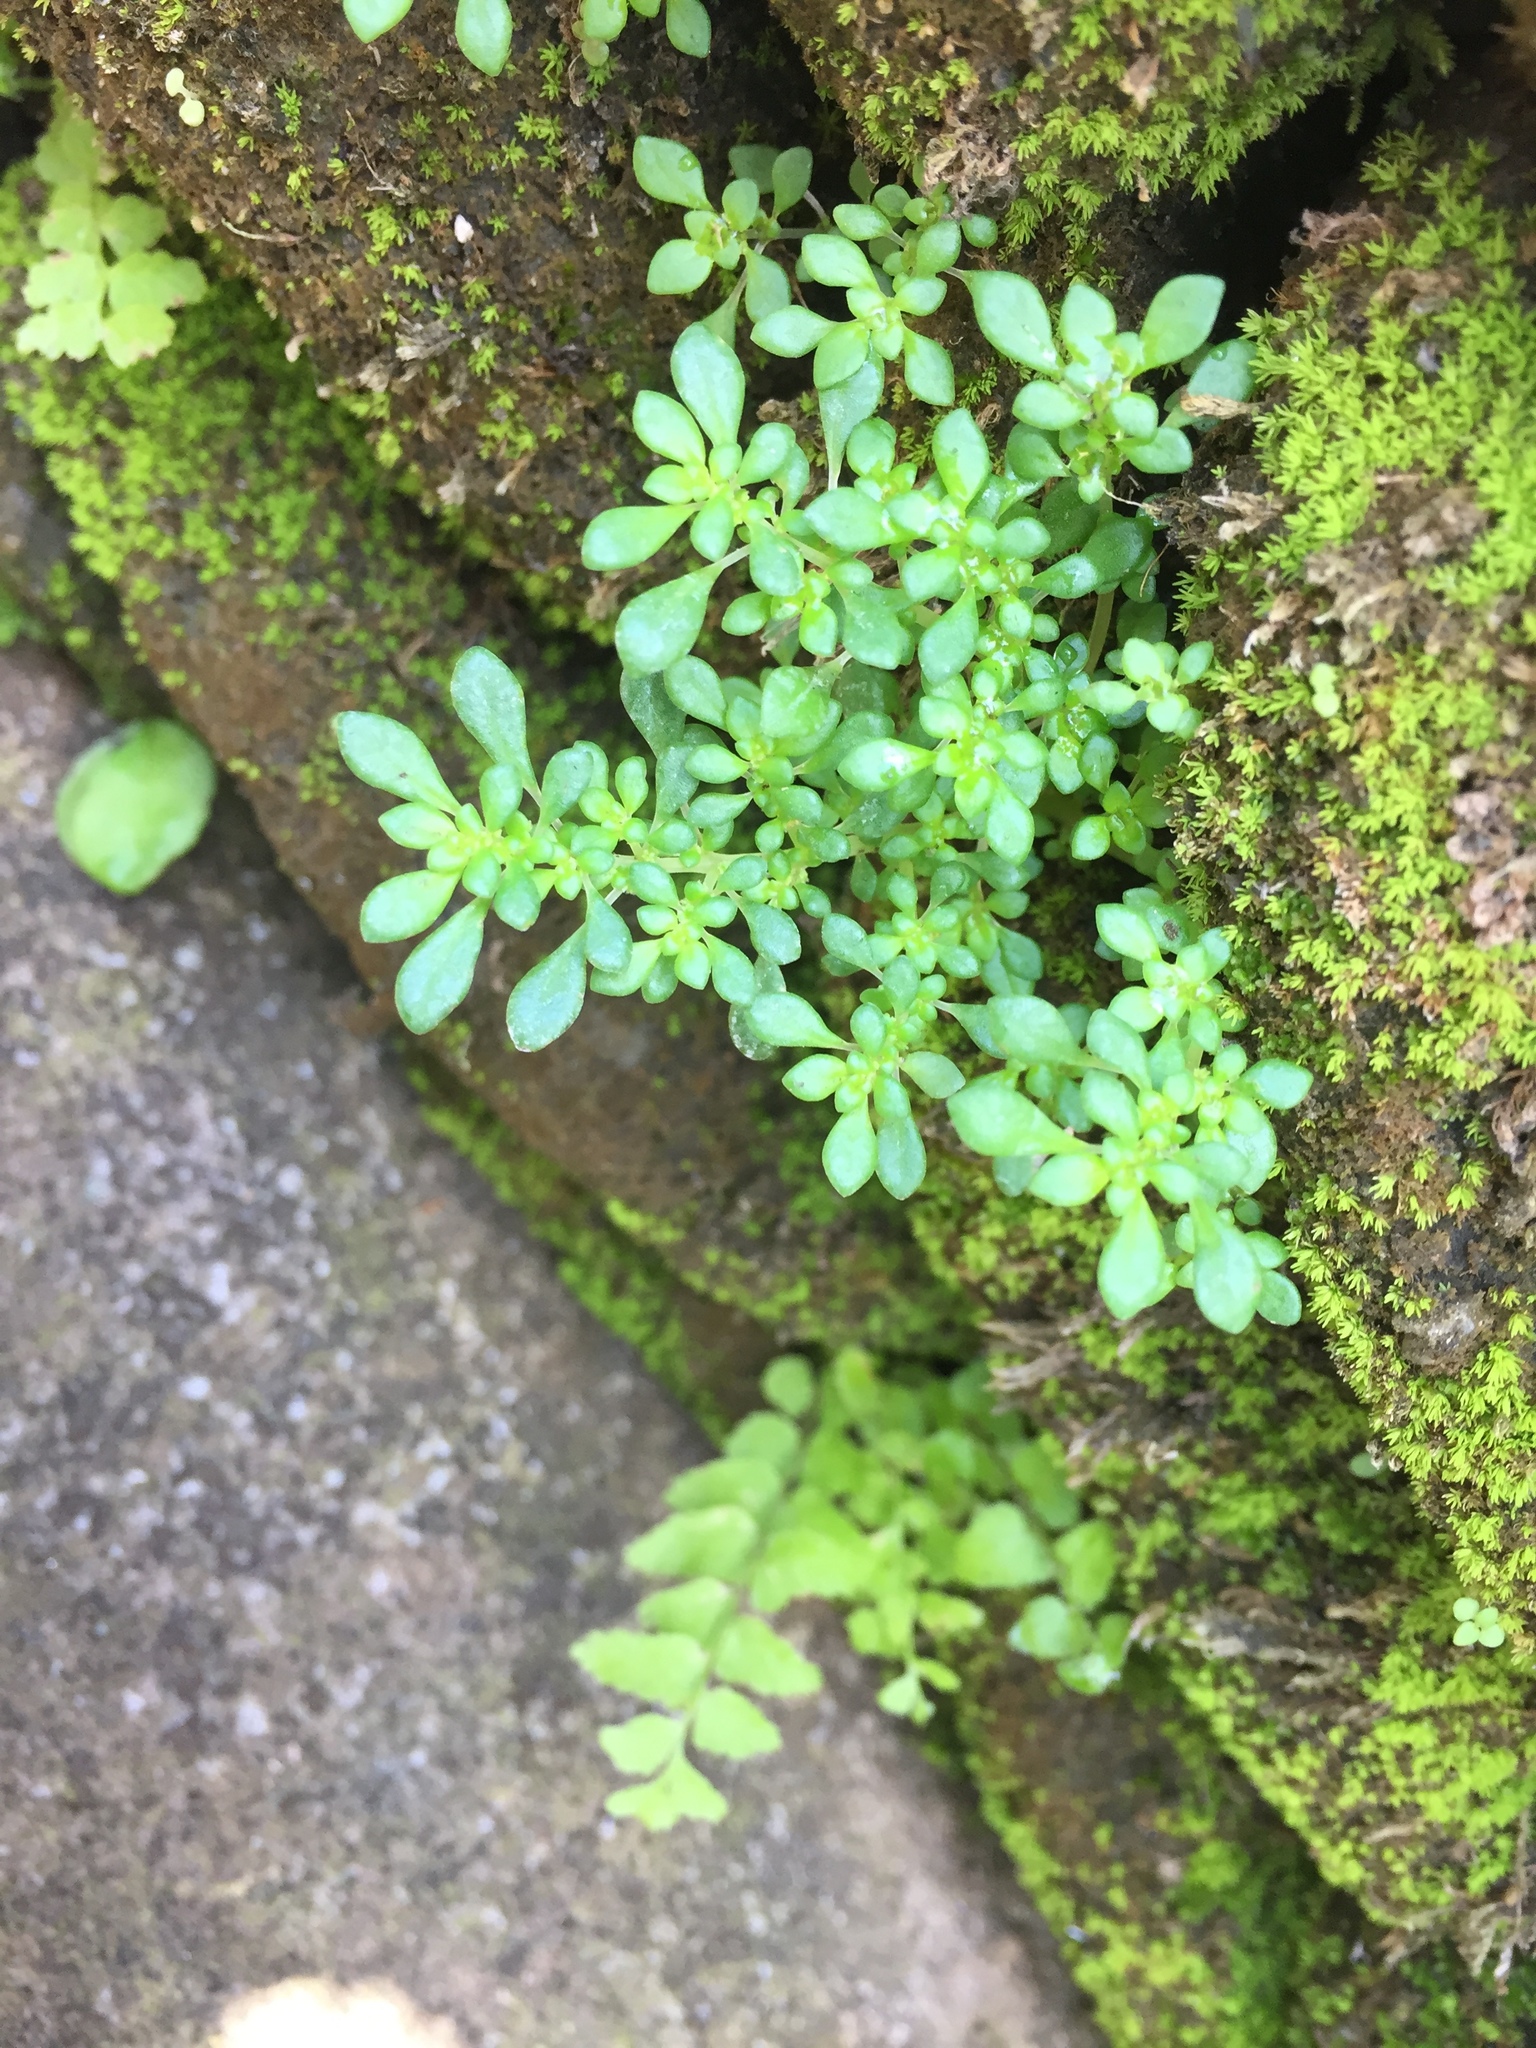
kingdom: Plantae
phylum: Tracheophyta
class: Magnoliopsida
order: Rosales
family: Urticaceae
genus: Pilea
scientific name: Pilea microphylla
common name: Artillery-plant
